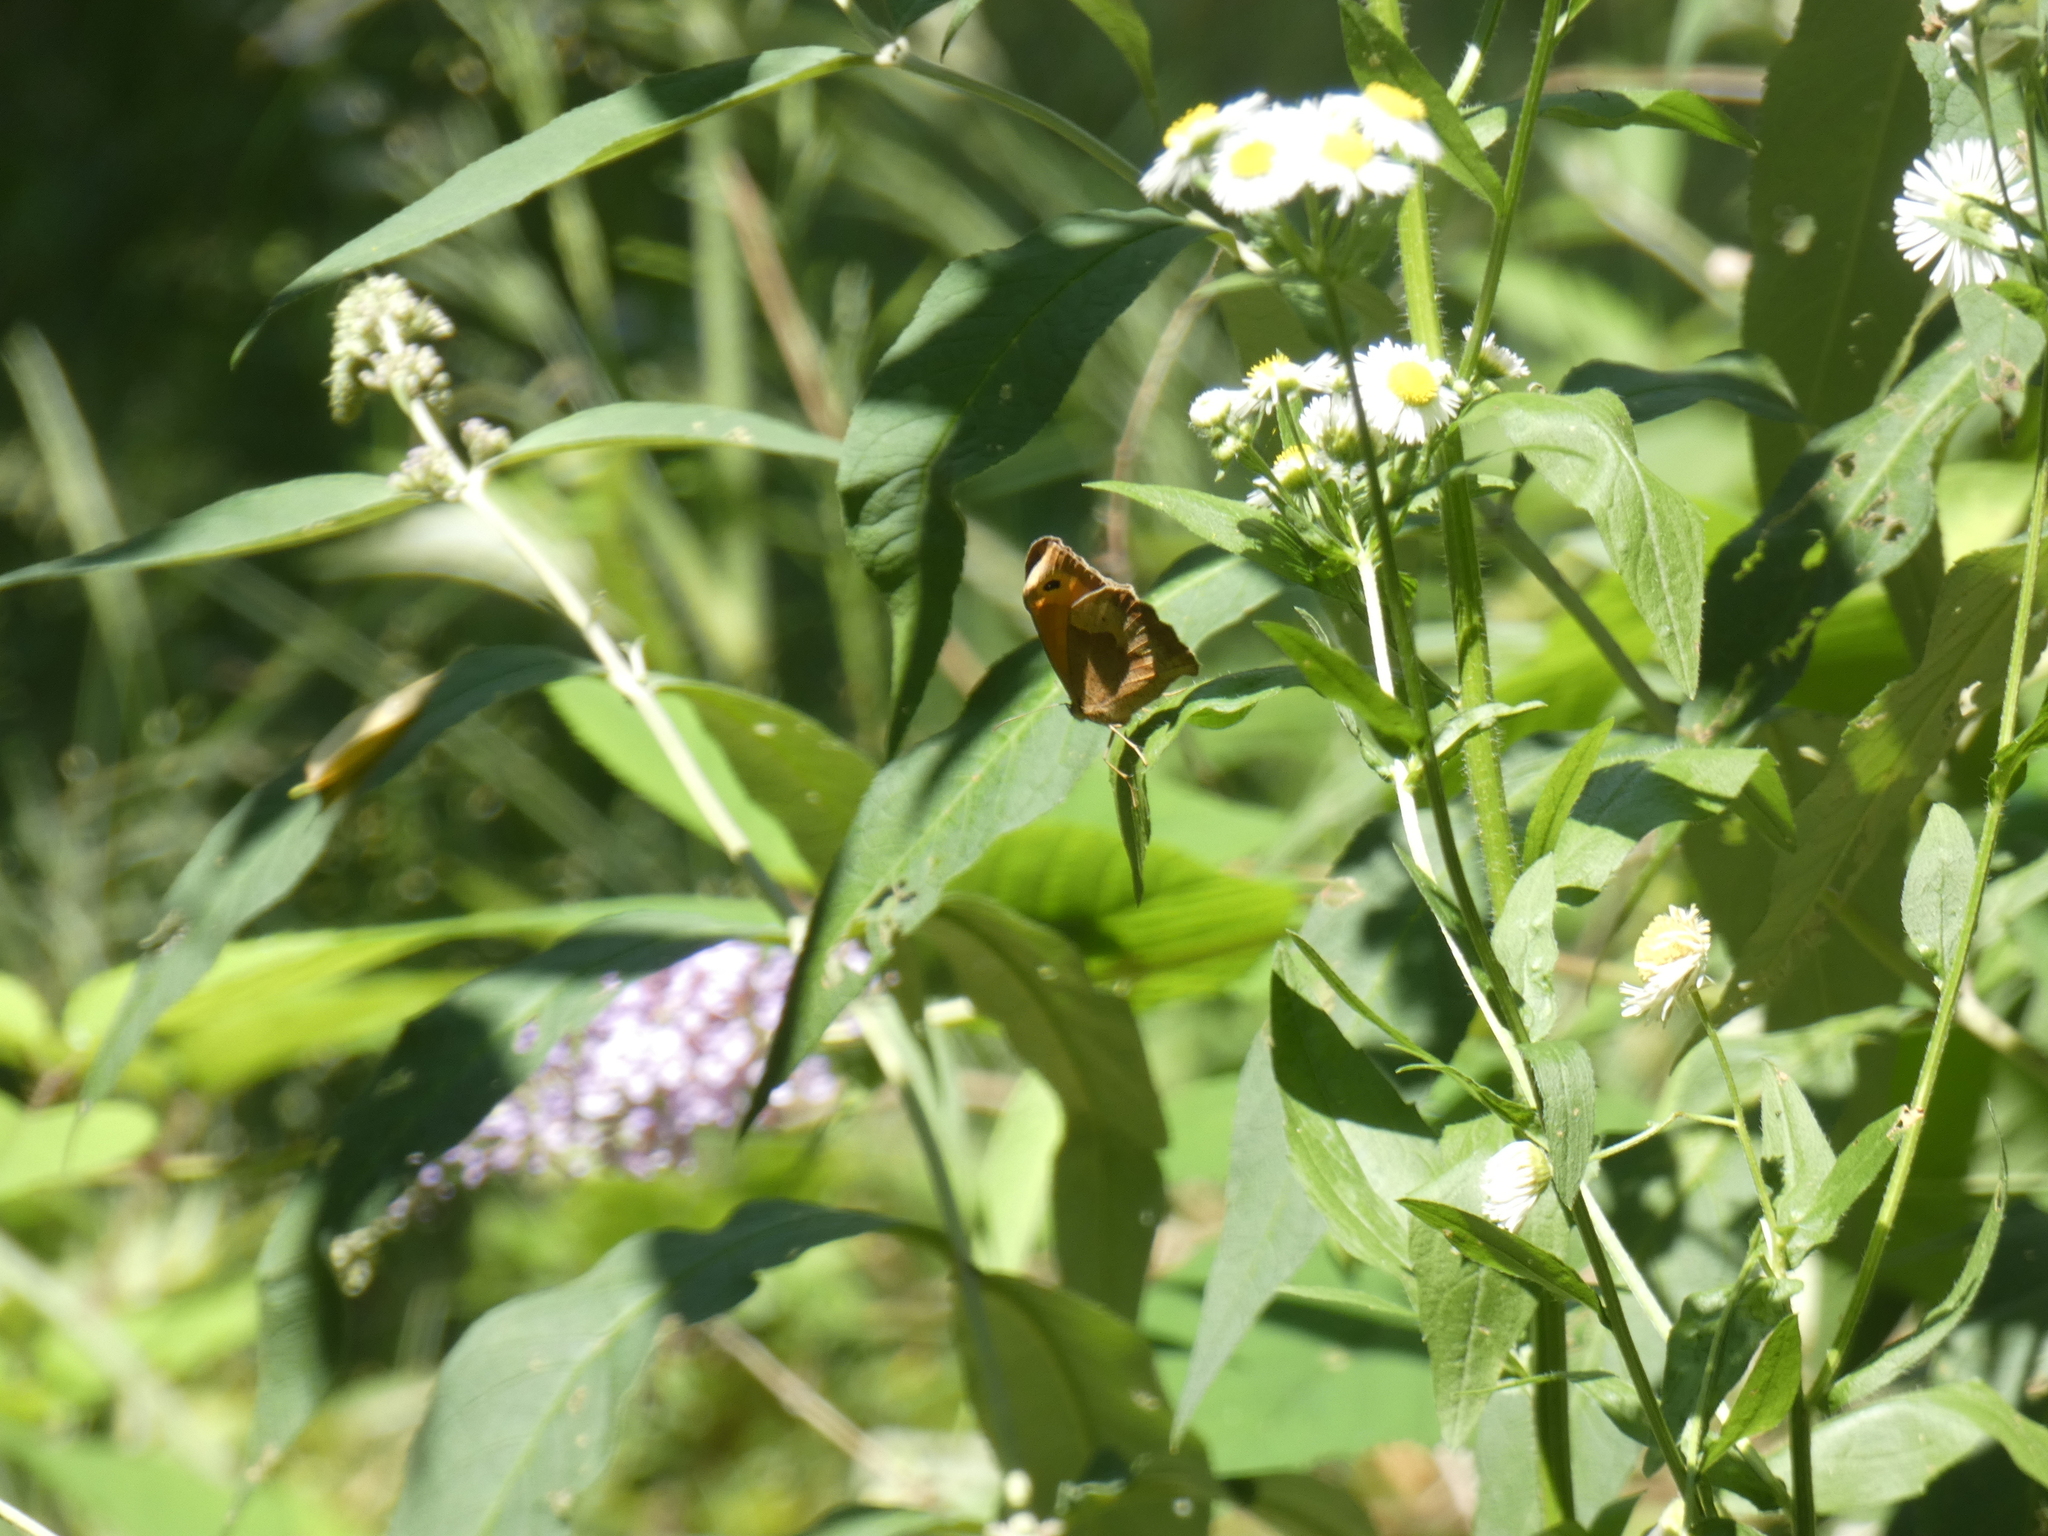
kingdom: Animalia
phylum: Arthropoda
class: Insecta
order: Lepidoptera
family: Nymphalidae
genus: Maniola
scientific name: Maniola jurtina
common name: Meadow brown
